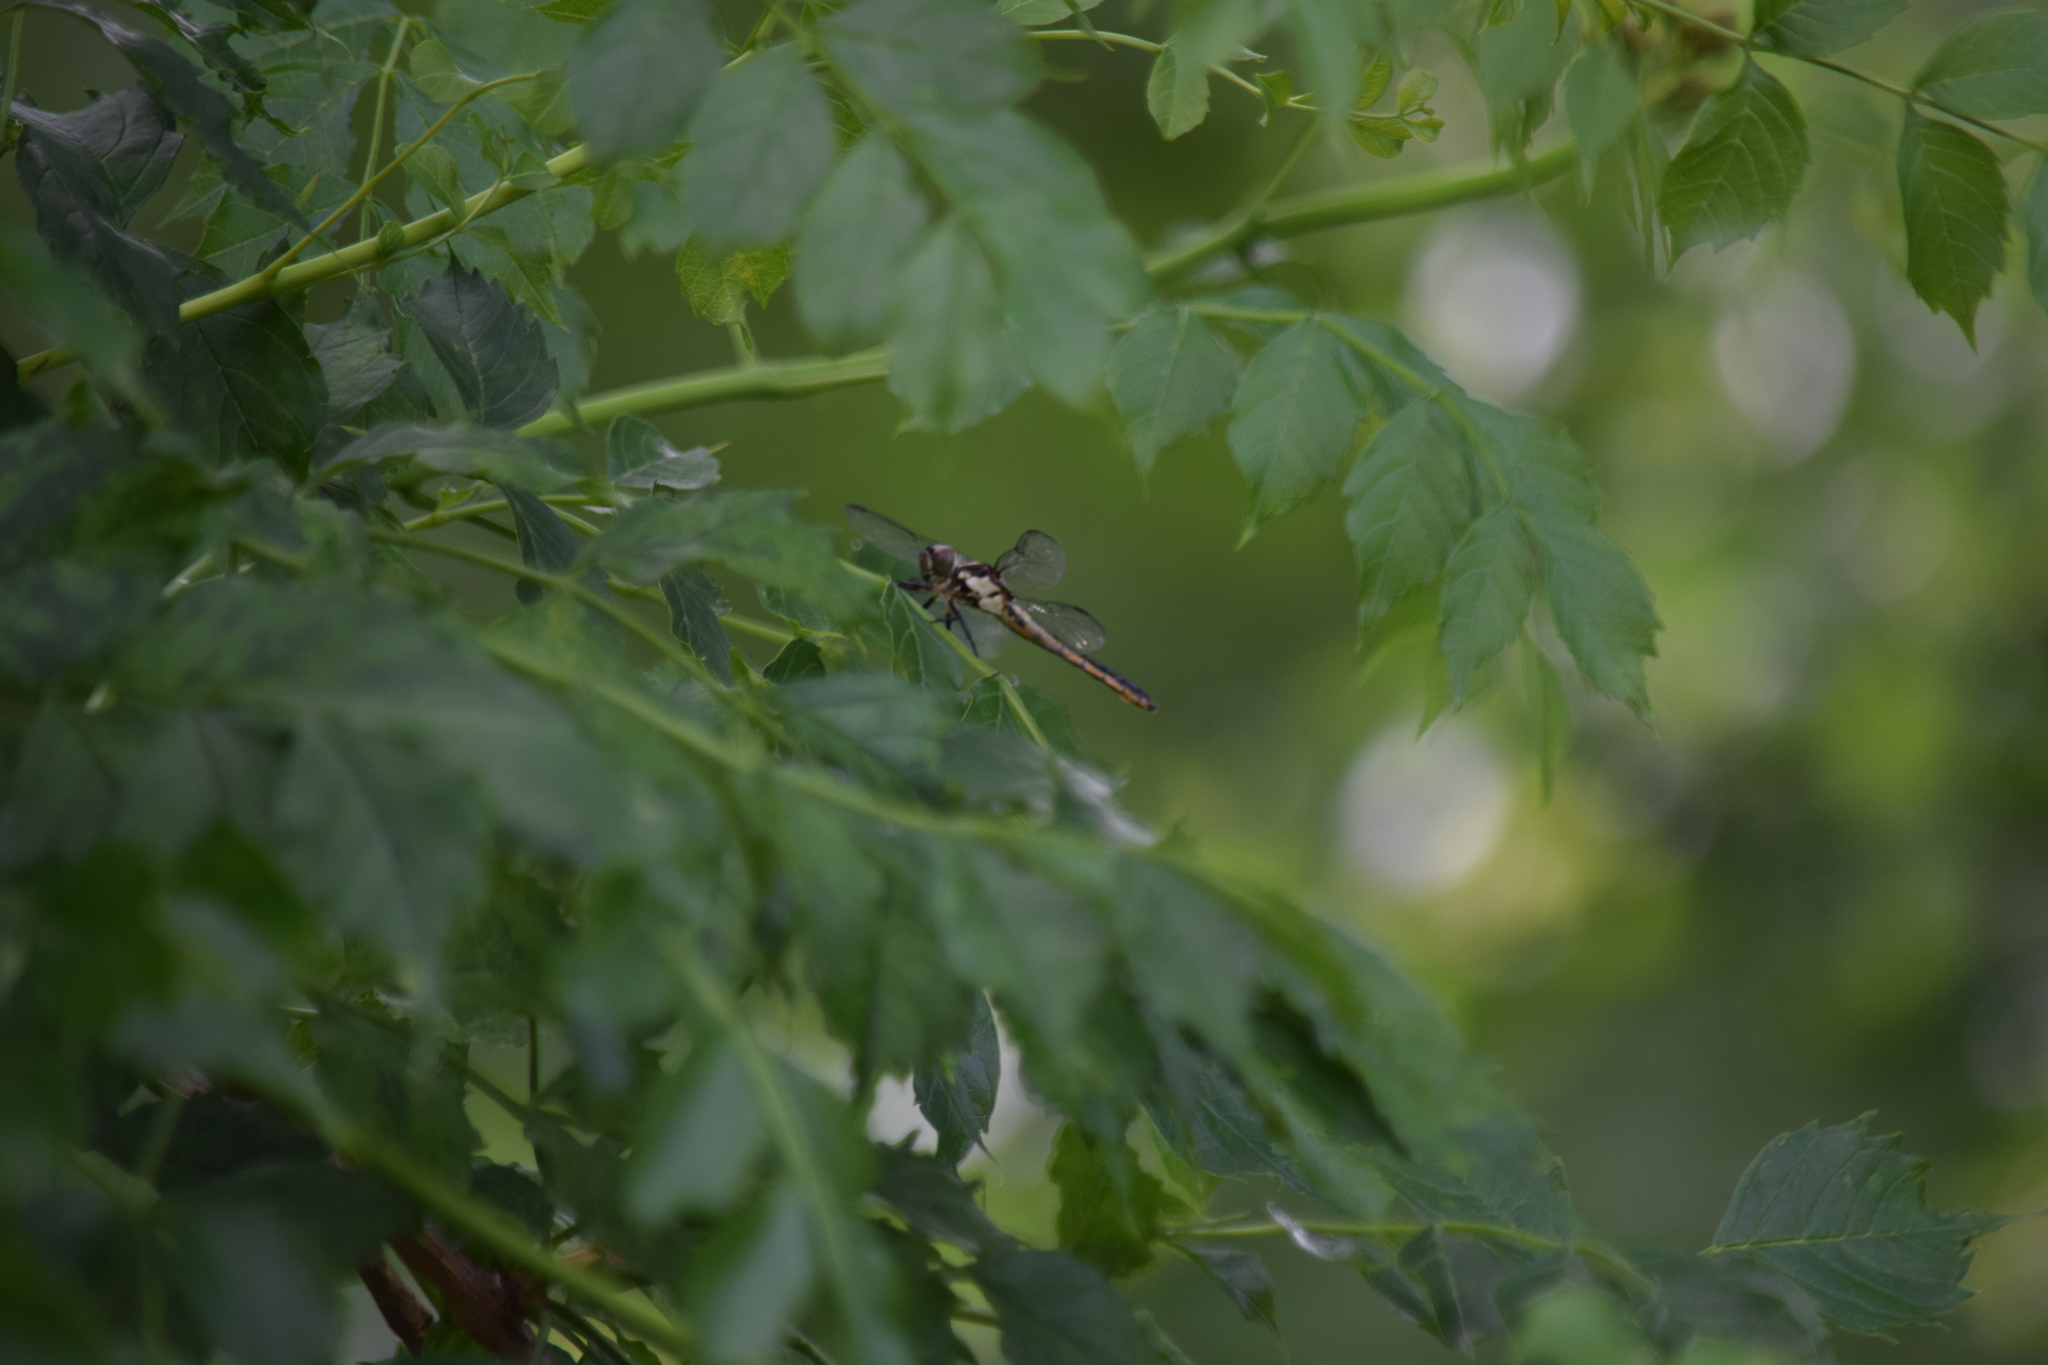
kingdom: Animalia
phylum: Arthropoda
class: Insecta
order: Odonata
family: Libellulidae
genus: Libellula
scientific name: Libellula incesta
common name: Slaty skimmer
